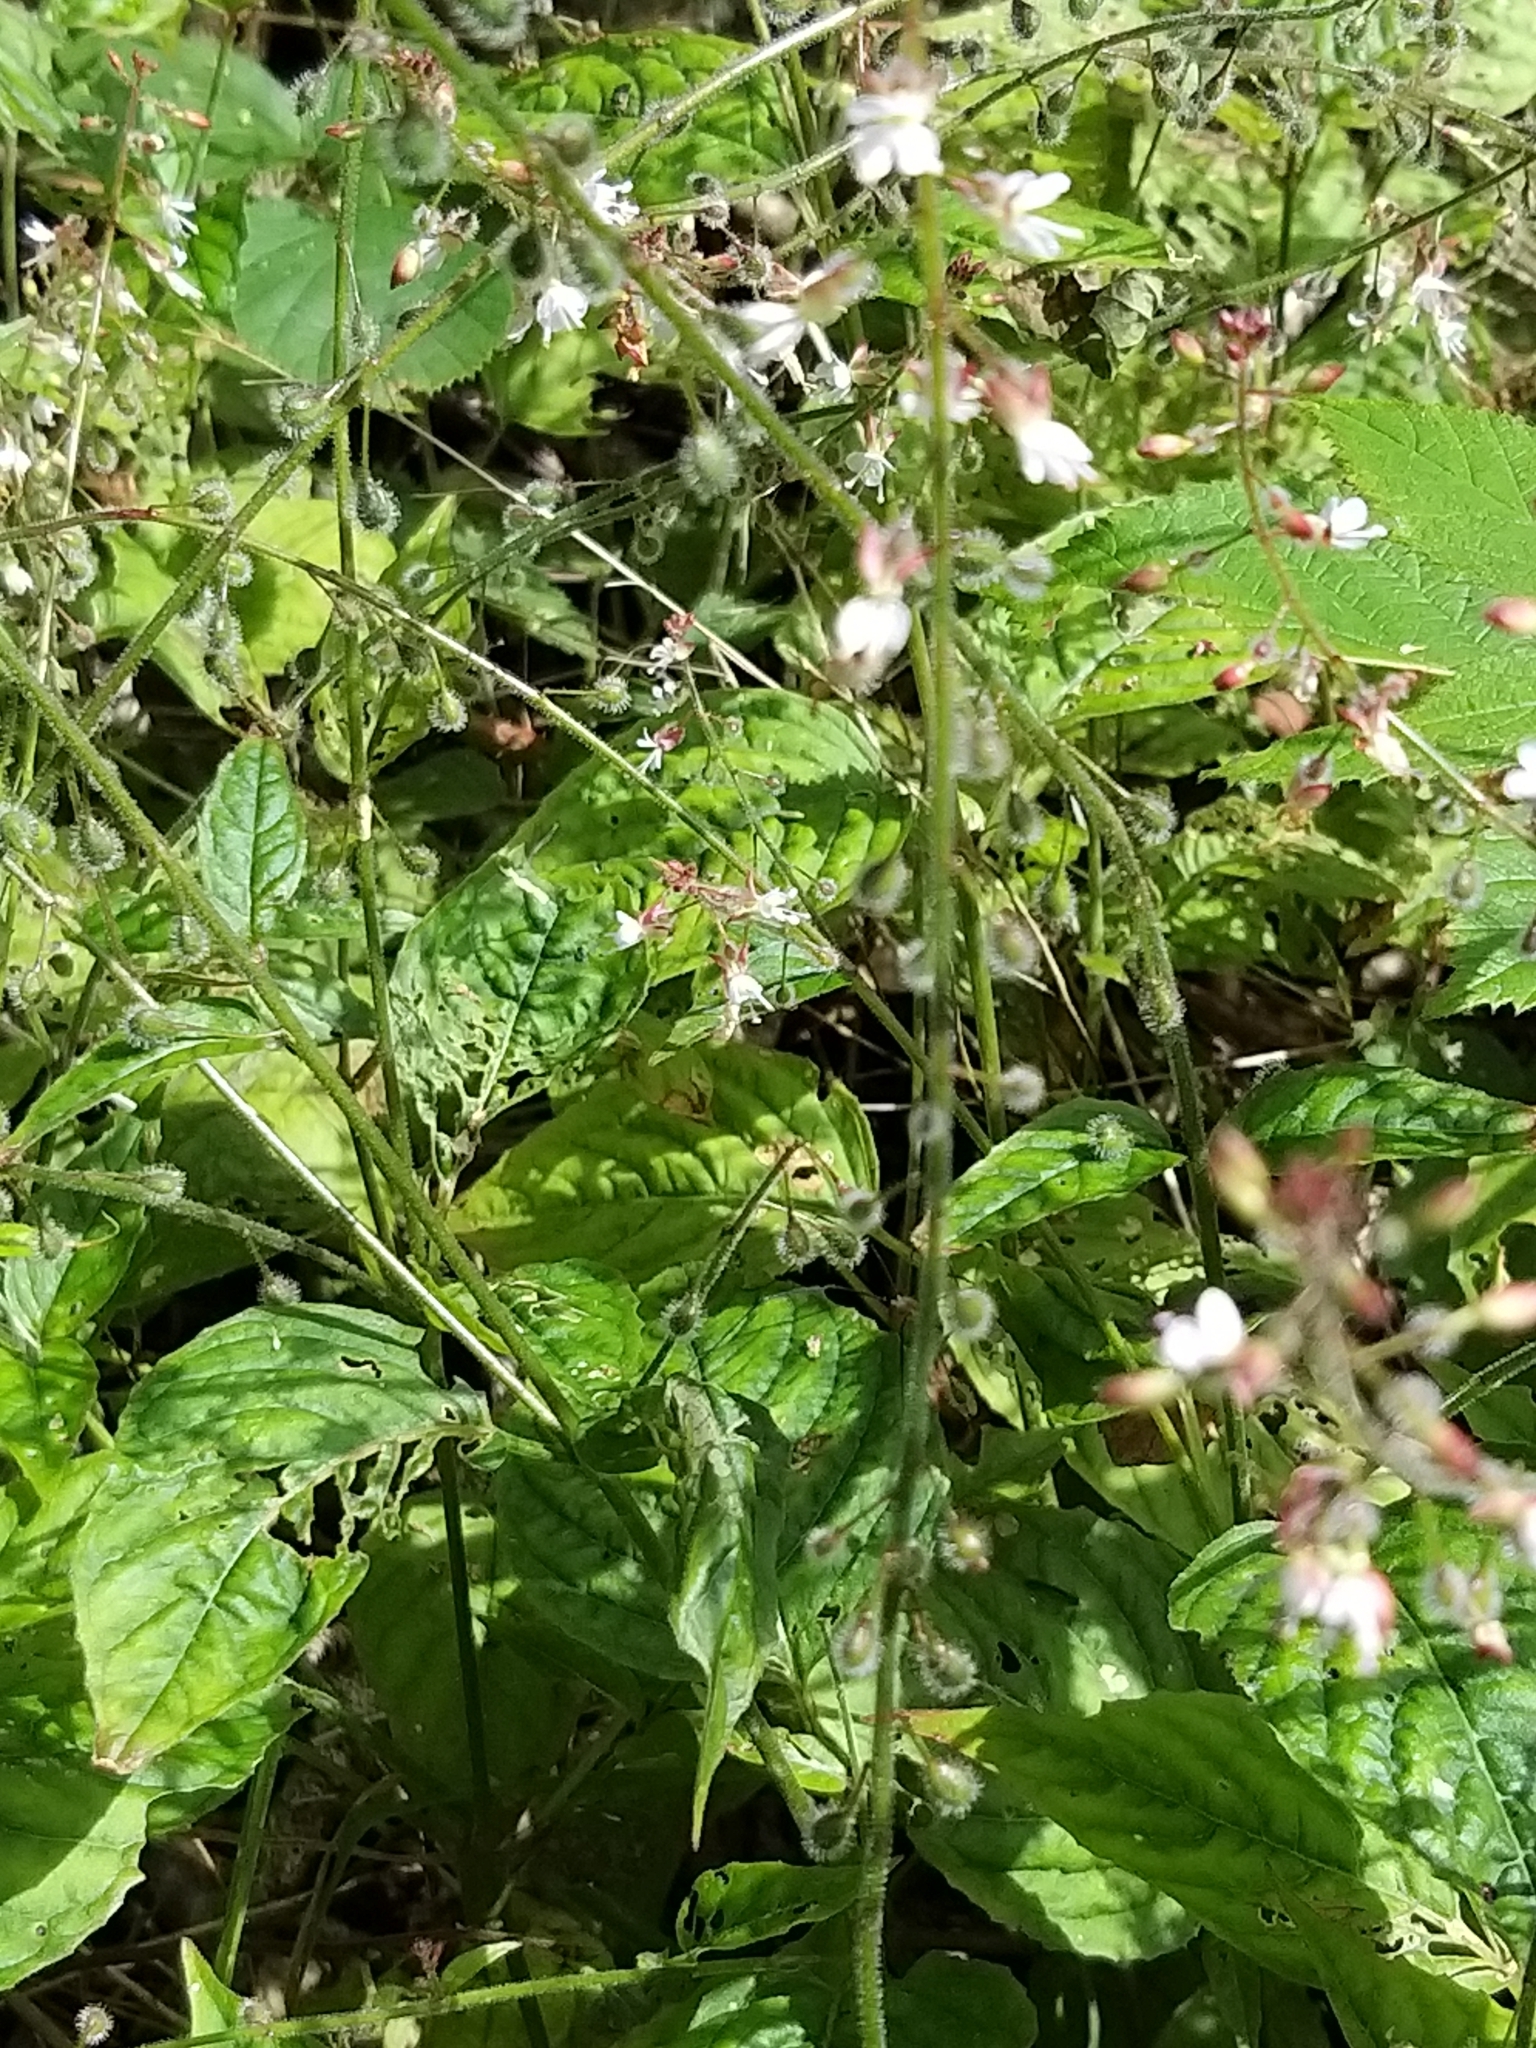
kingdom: Plantae
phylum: Tracheophyta
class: Magnoliopsida
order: Myrtales
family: Onagraceae
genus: Circaea
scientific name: Circaea lutetiana
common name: Enchanter's-nightshade
